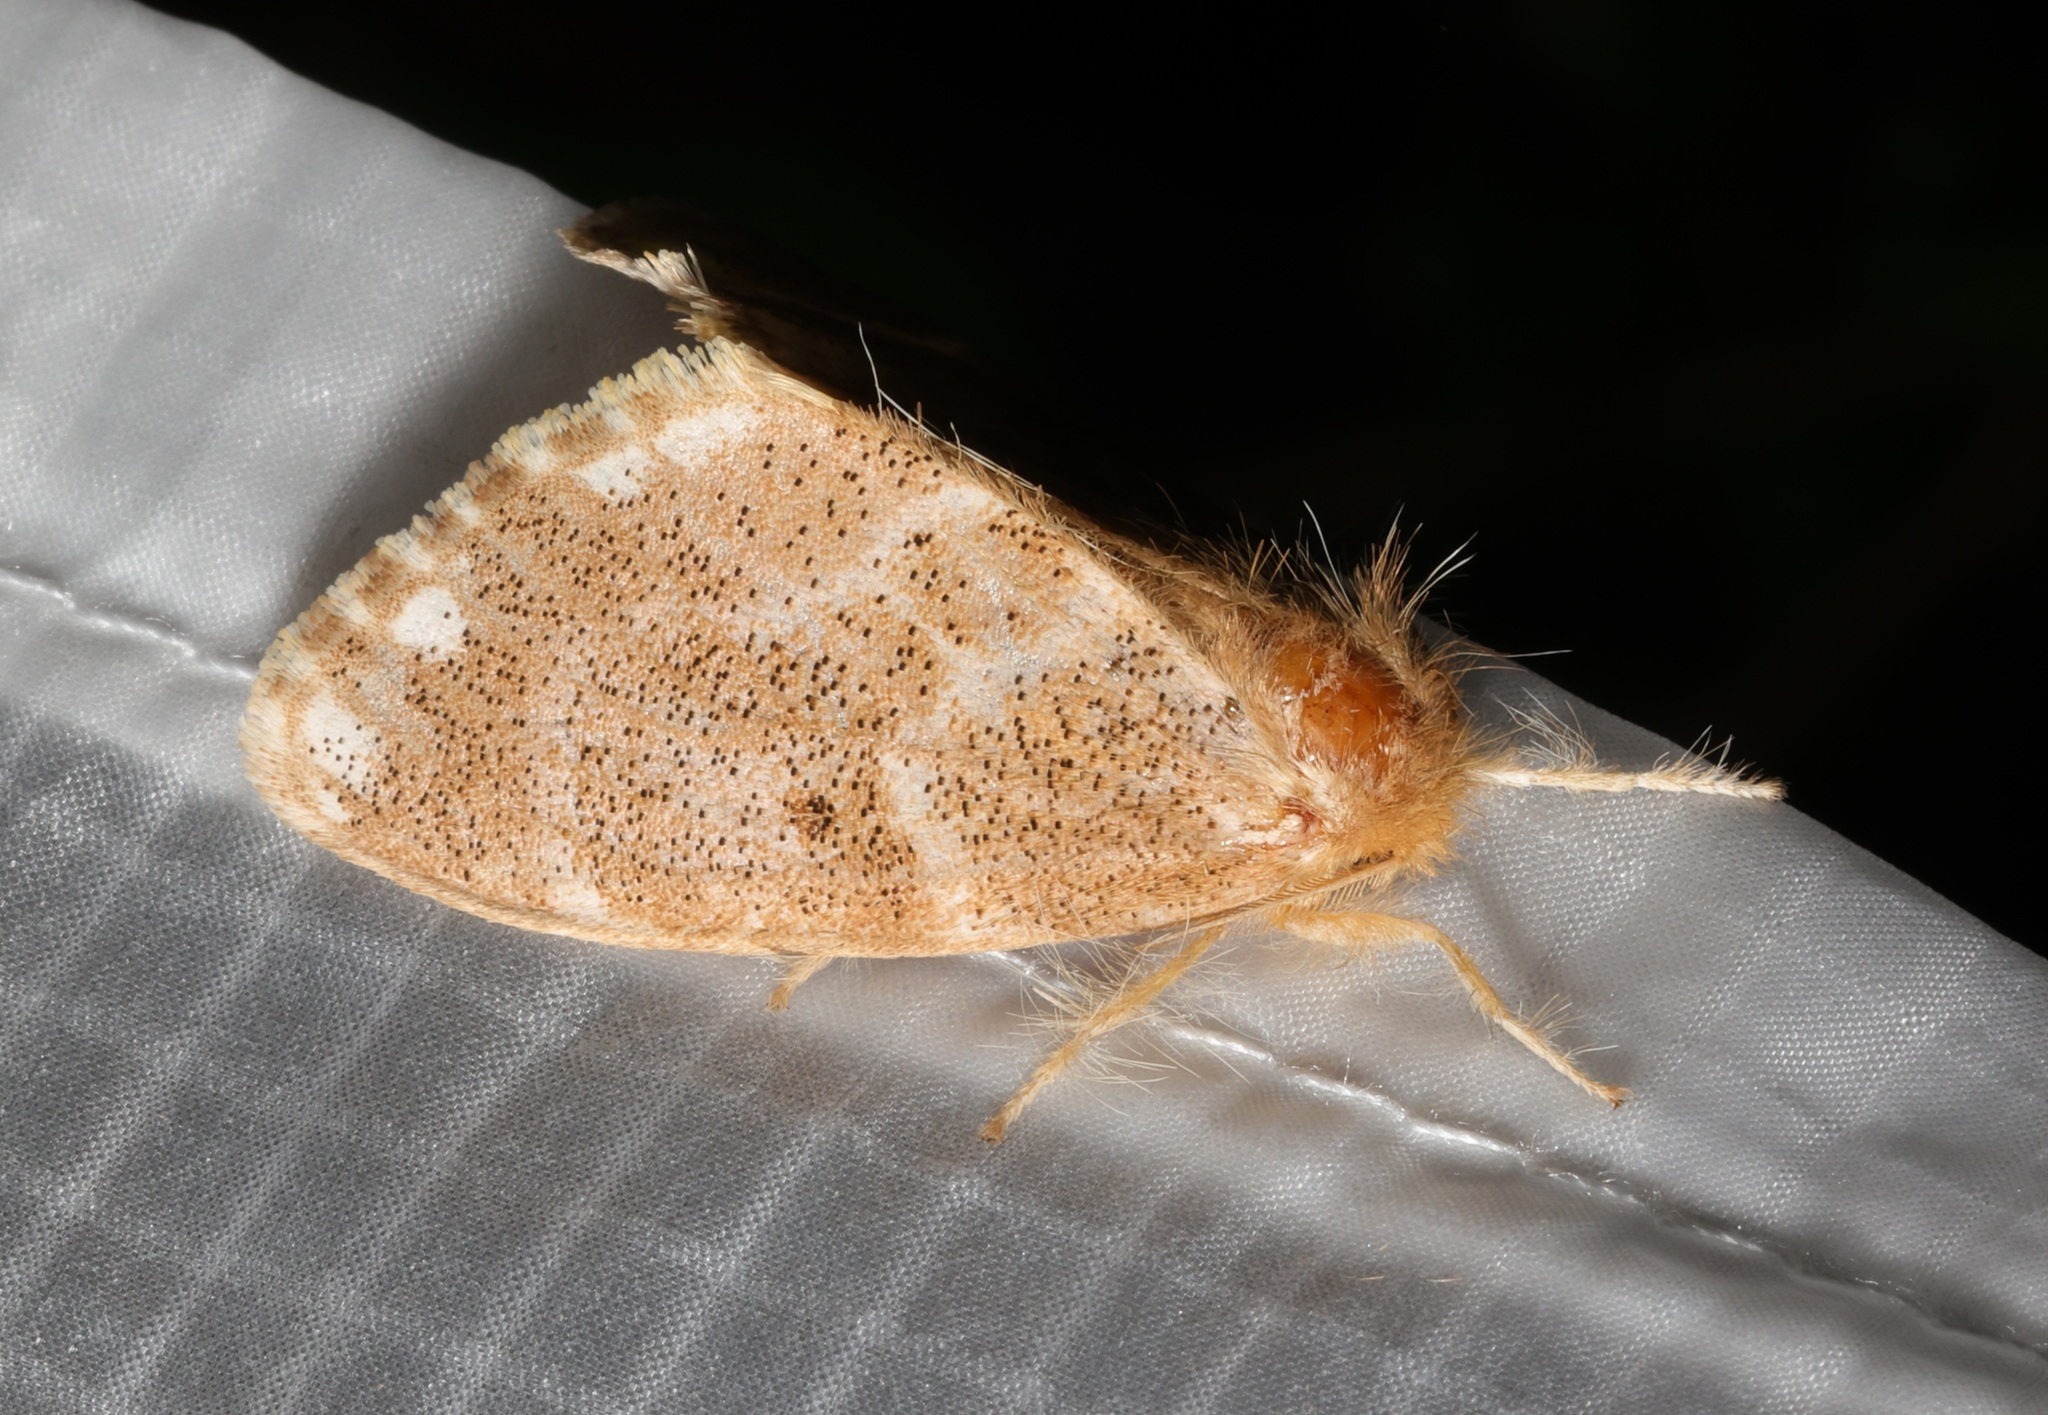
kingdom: Animalia
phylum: Arthropoda
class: Insecta
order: Lepidoptera
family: Erebidae
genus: Euproctis
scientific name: Euproctis inornata
